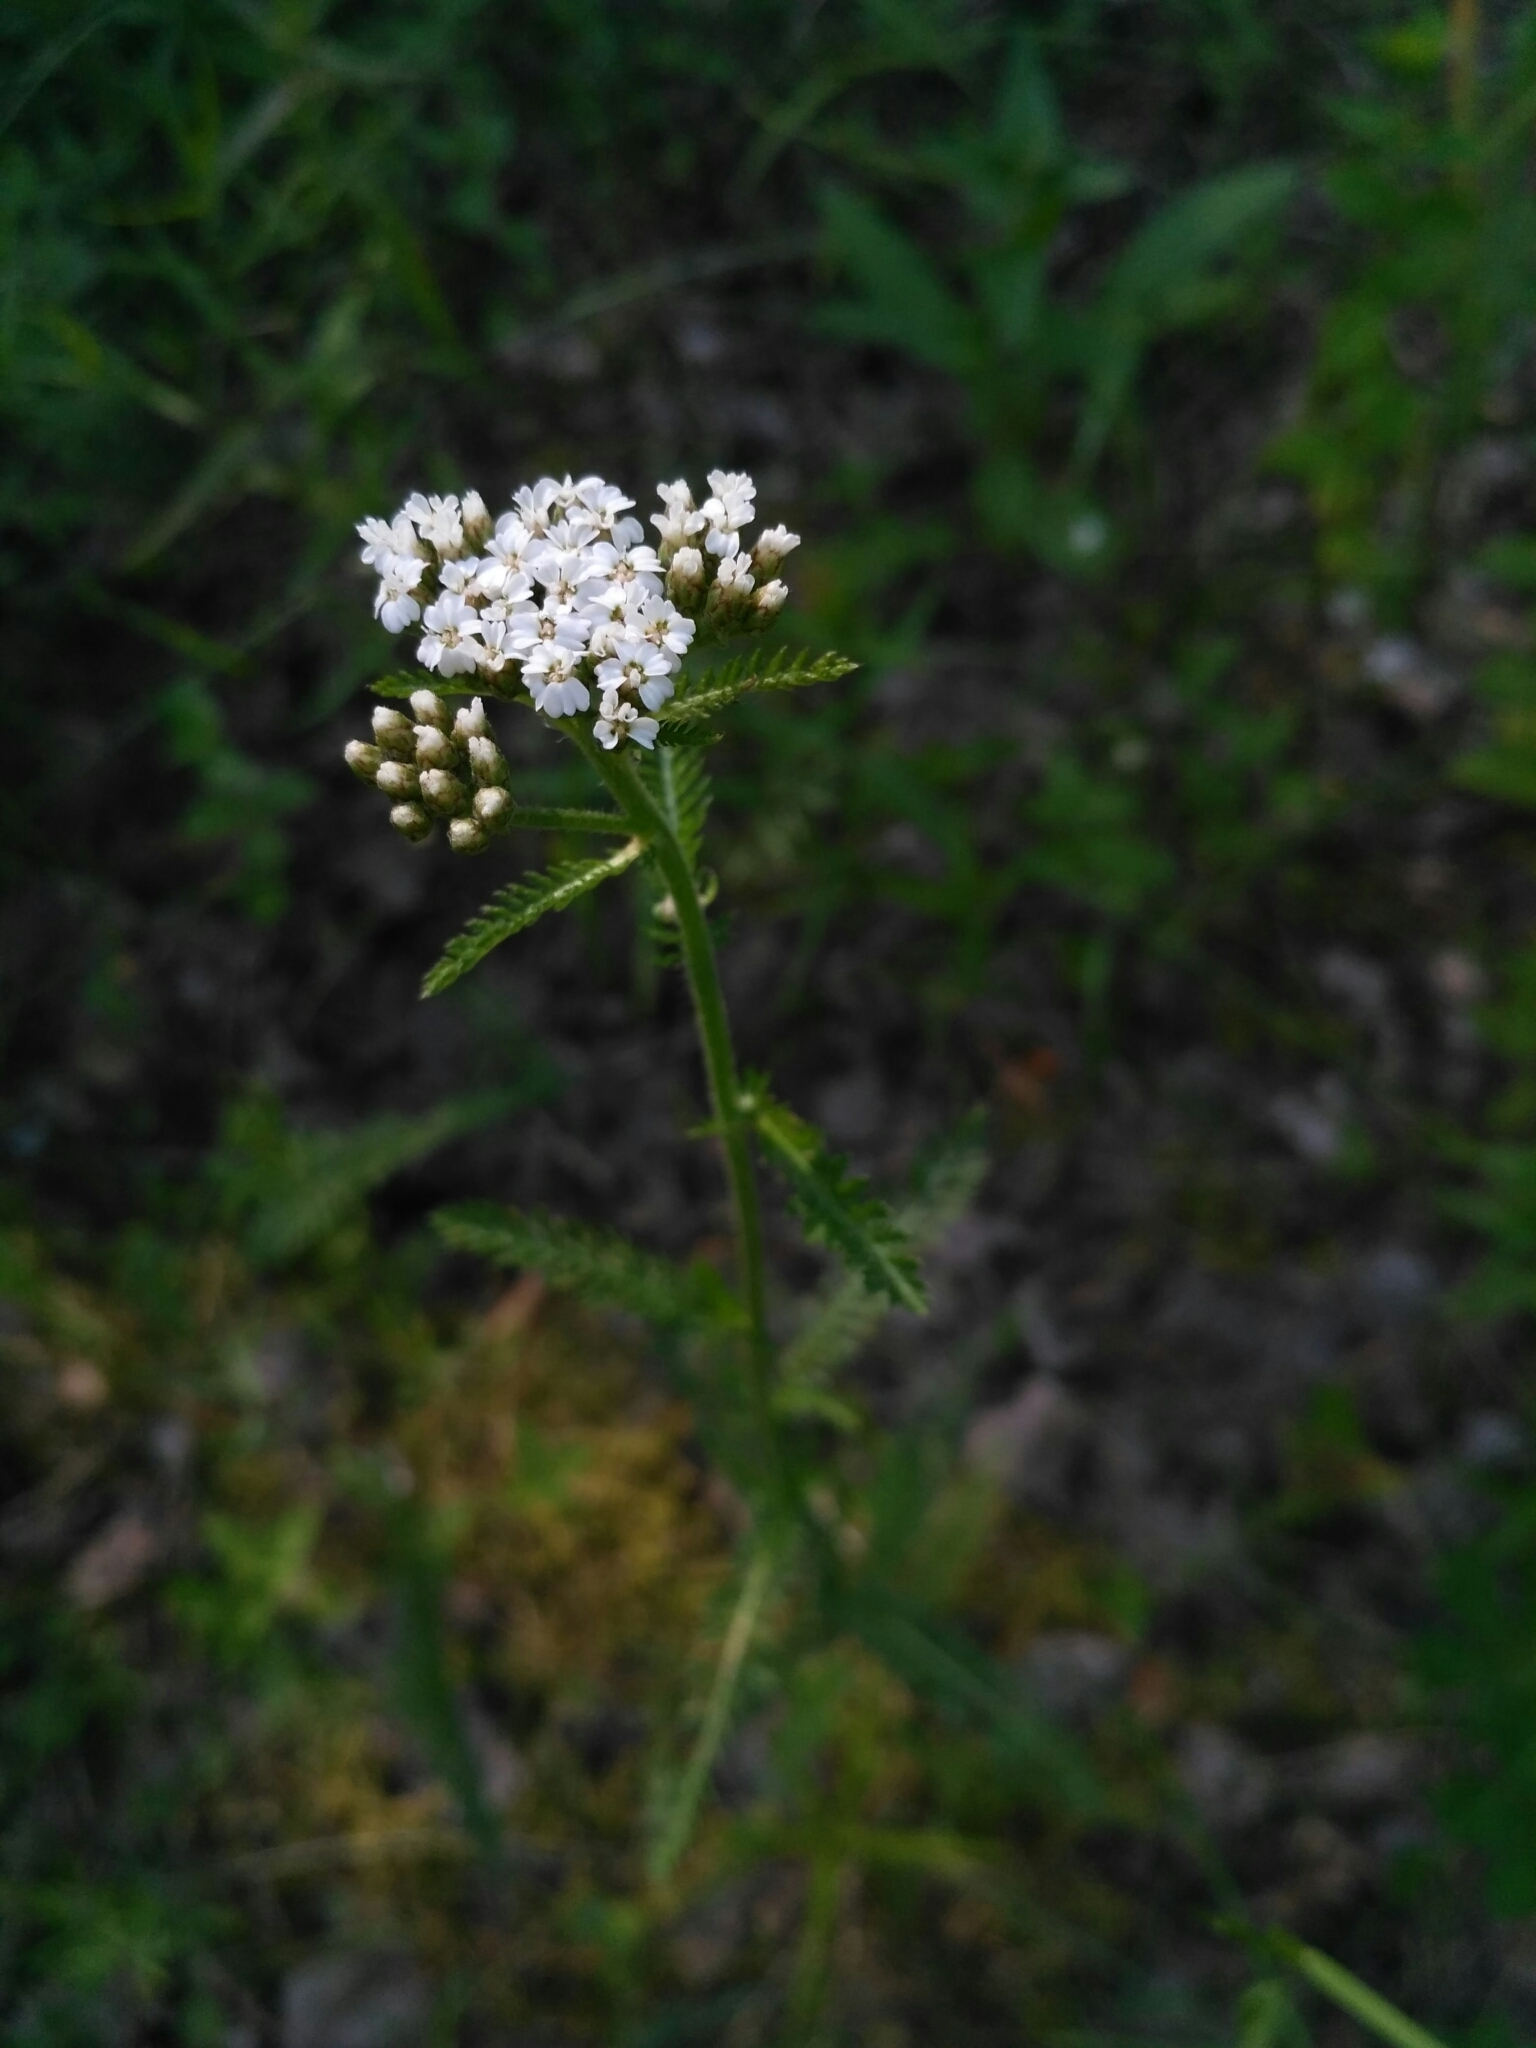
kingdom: Plantae
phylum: Tracheophyta
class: Magnoliopsida
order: Asterales
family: Asteraceae
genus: Achillea
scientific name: Achillea millefolium
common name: Yarrow
